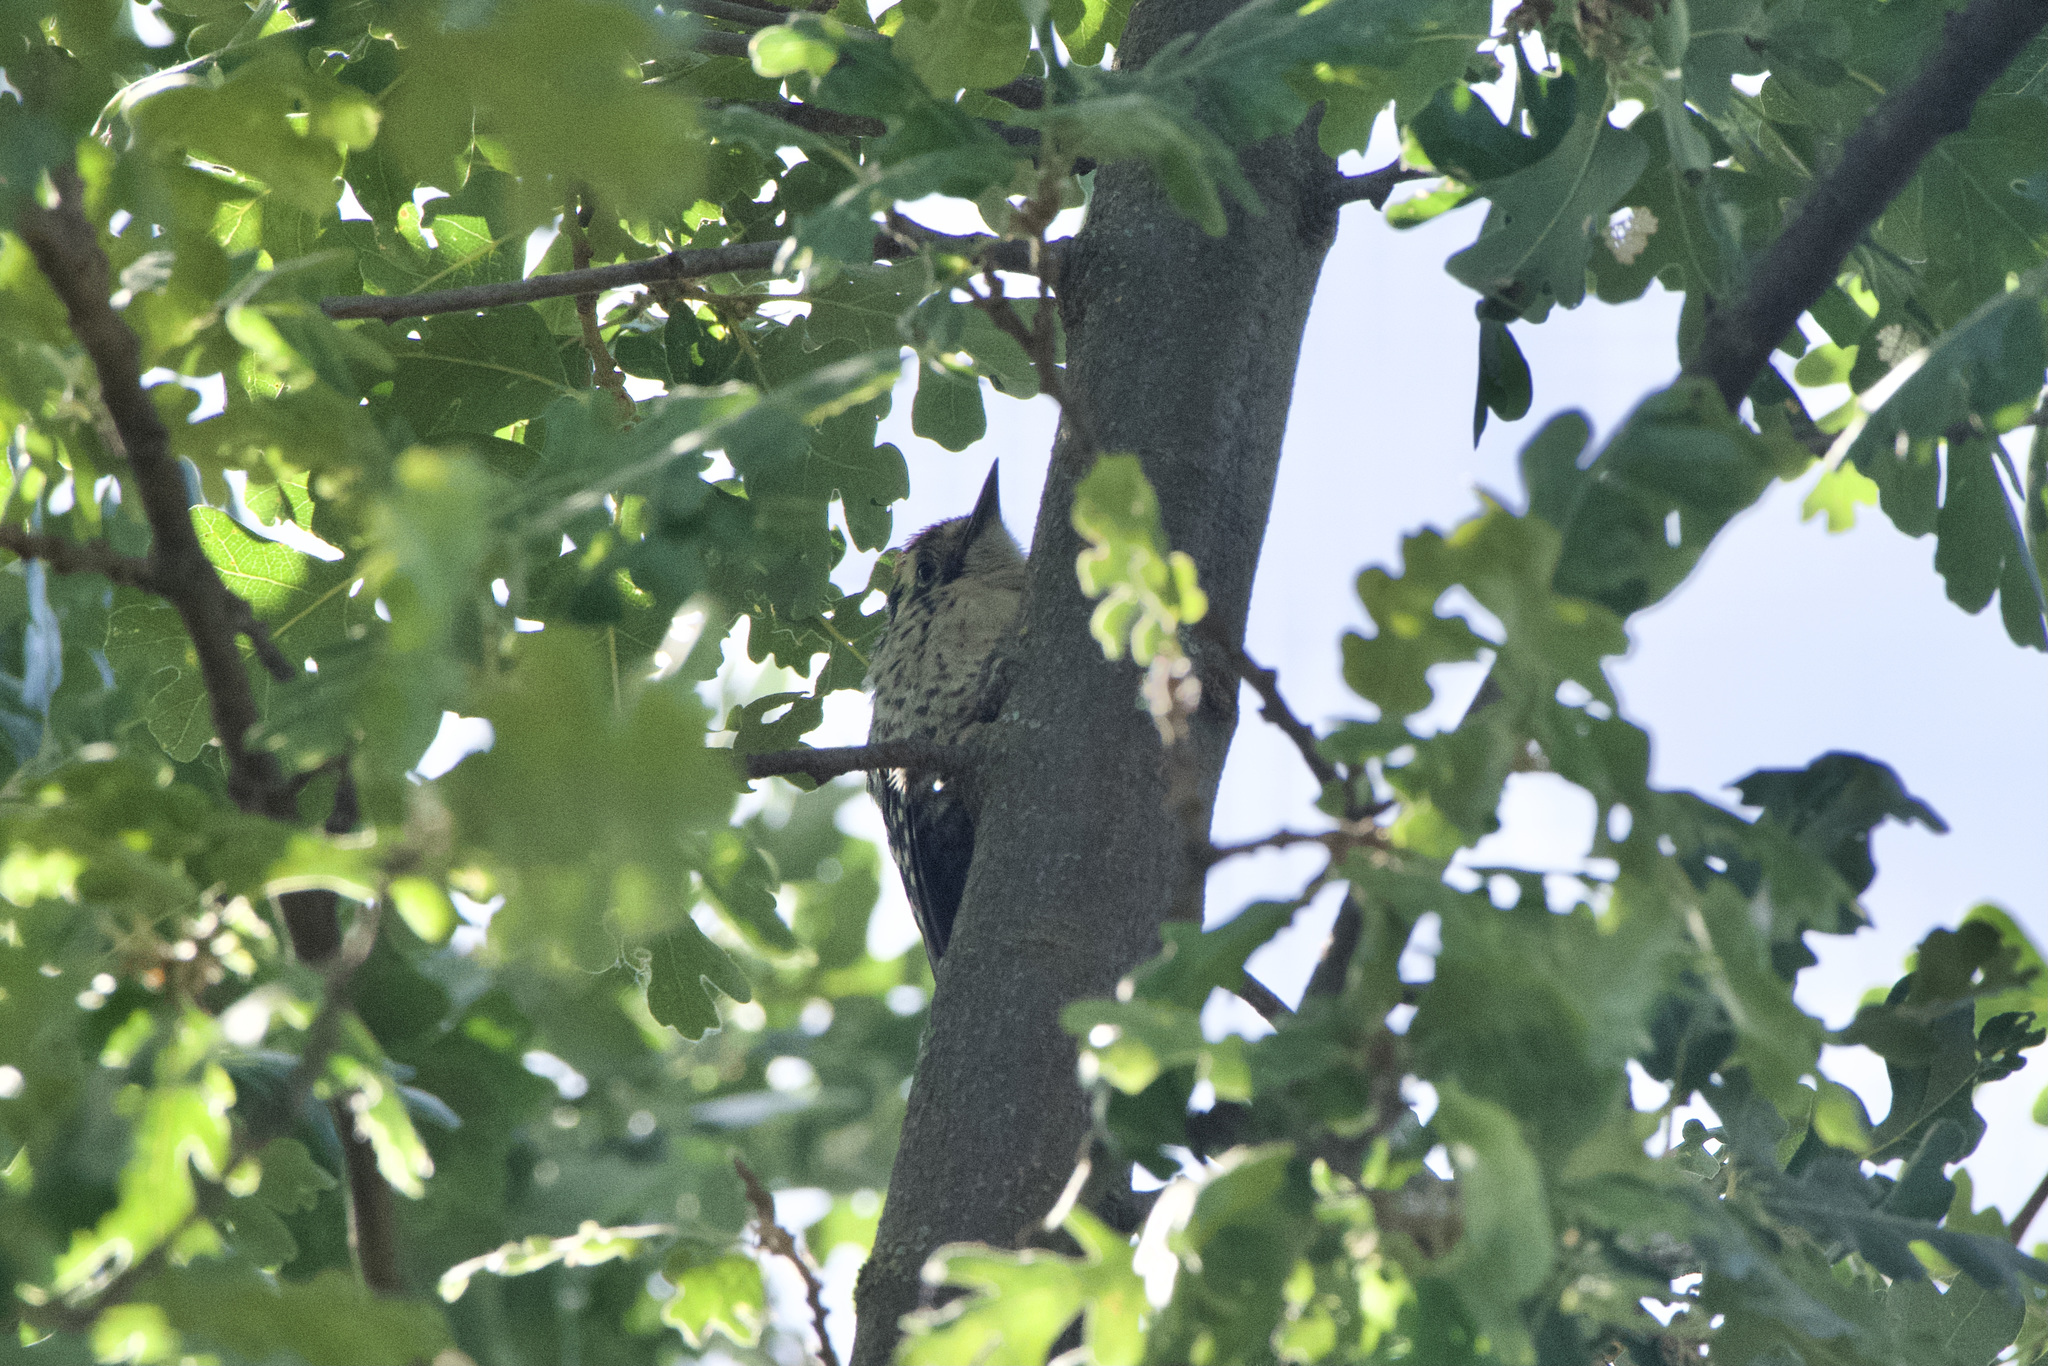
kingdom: Animalia
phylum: Chordata
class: Aves
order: Piciformes
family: Picidae
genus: Dryobates
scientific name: Dryobates nuttallii
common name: Nuttall's woodpecker
